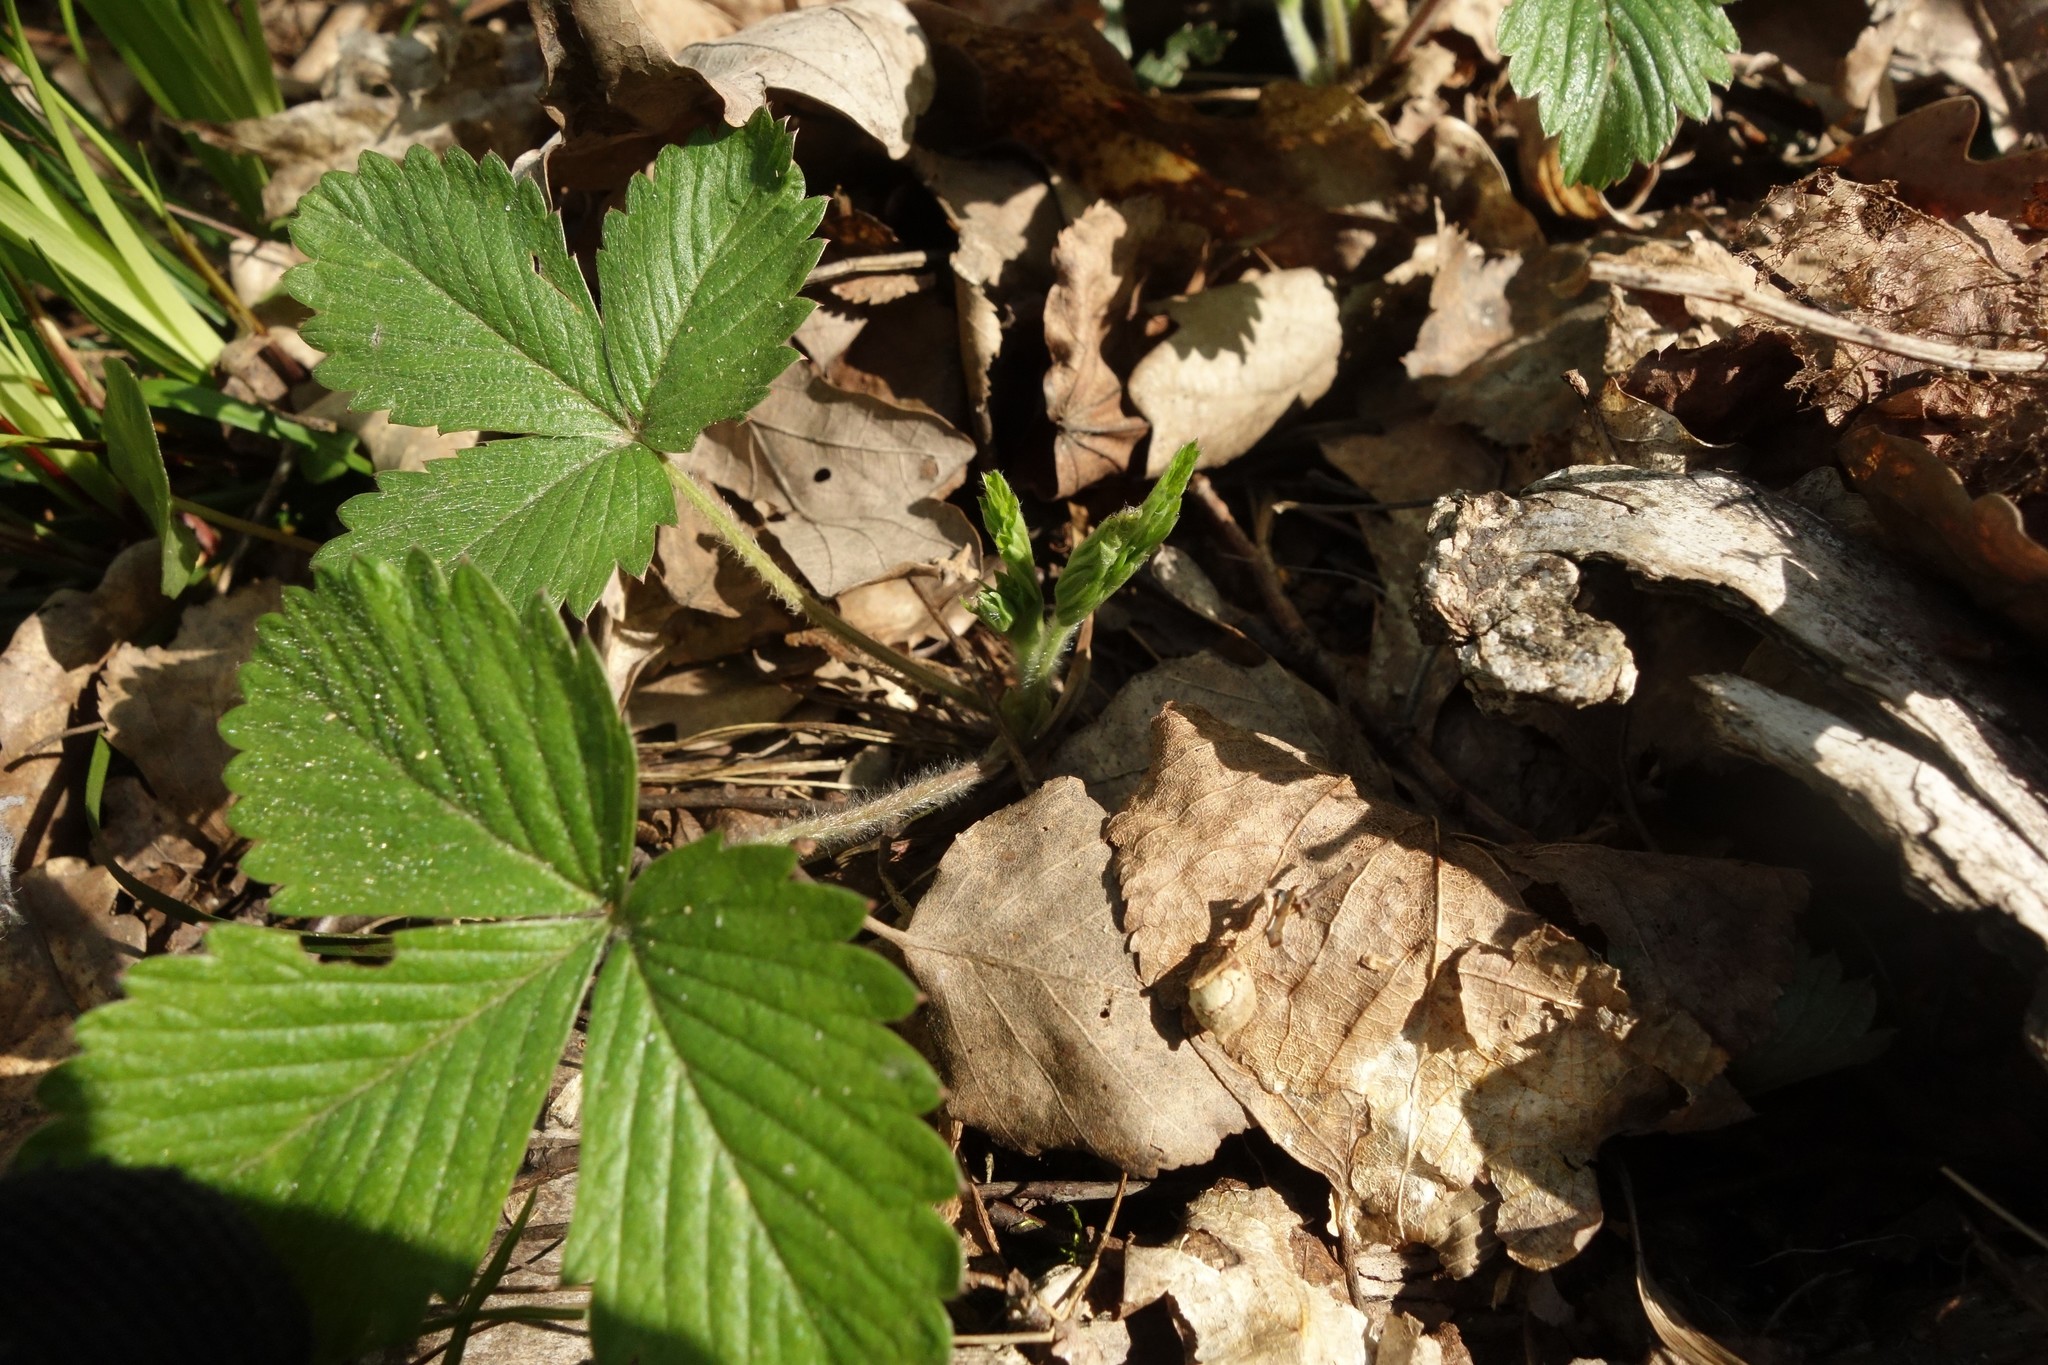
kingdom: Plantae
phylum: Tracheophyta
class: Magnoliopsida
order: Rosales
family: Rosaceae
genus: Fragaria
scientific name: Fragaria vesca
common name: Wild strawberry
